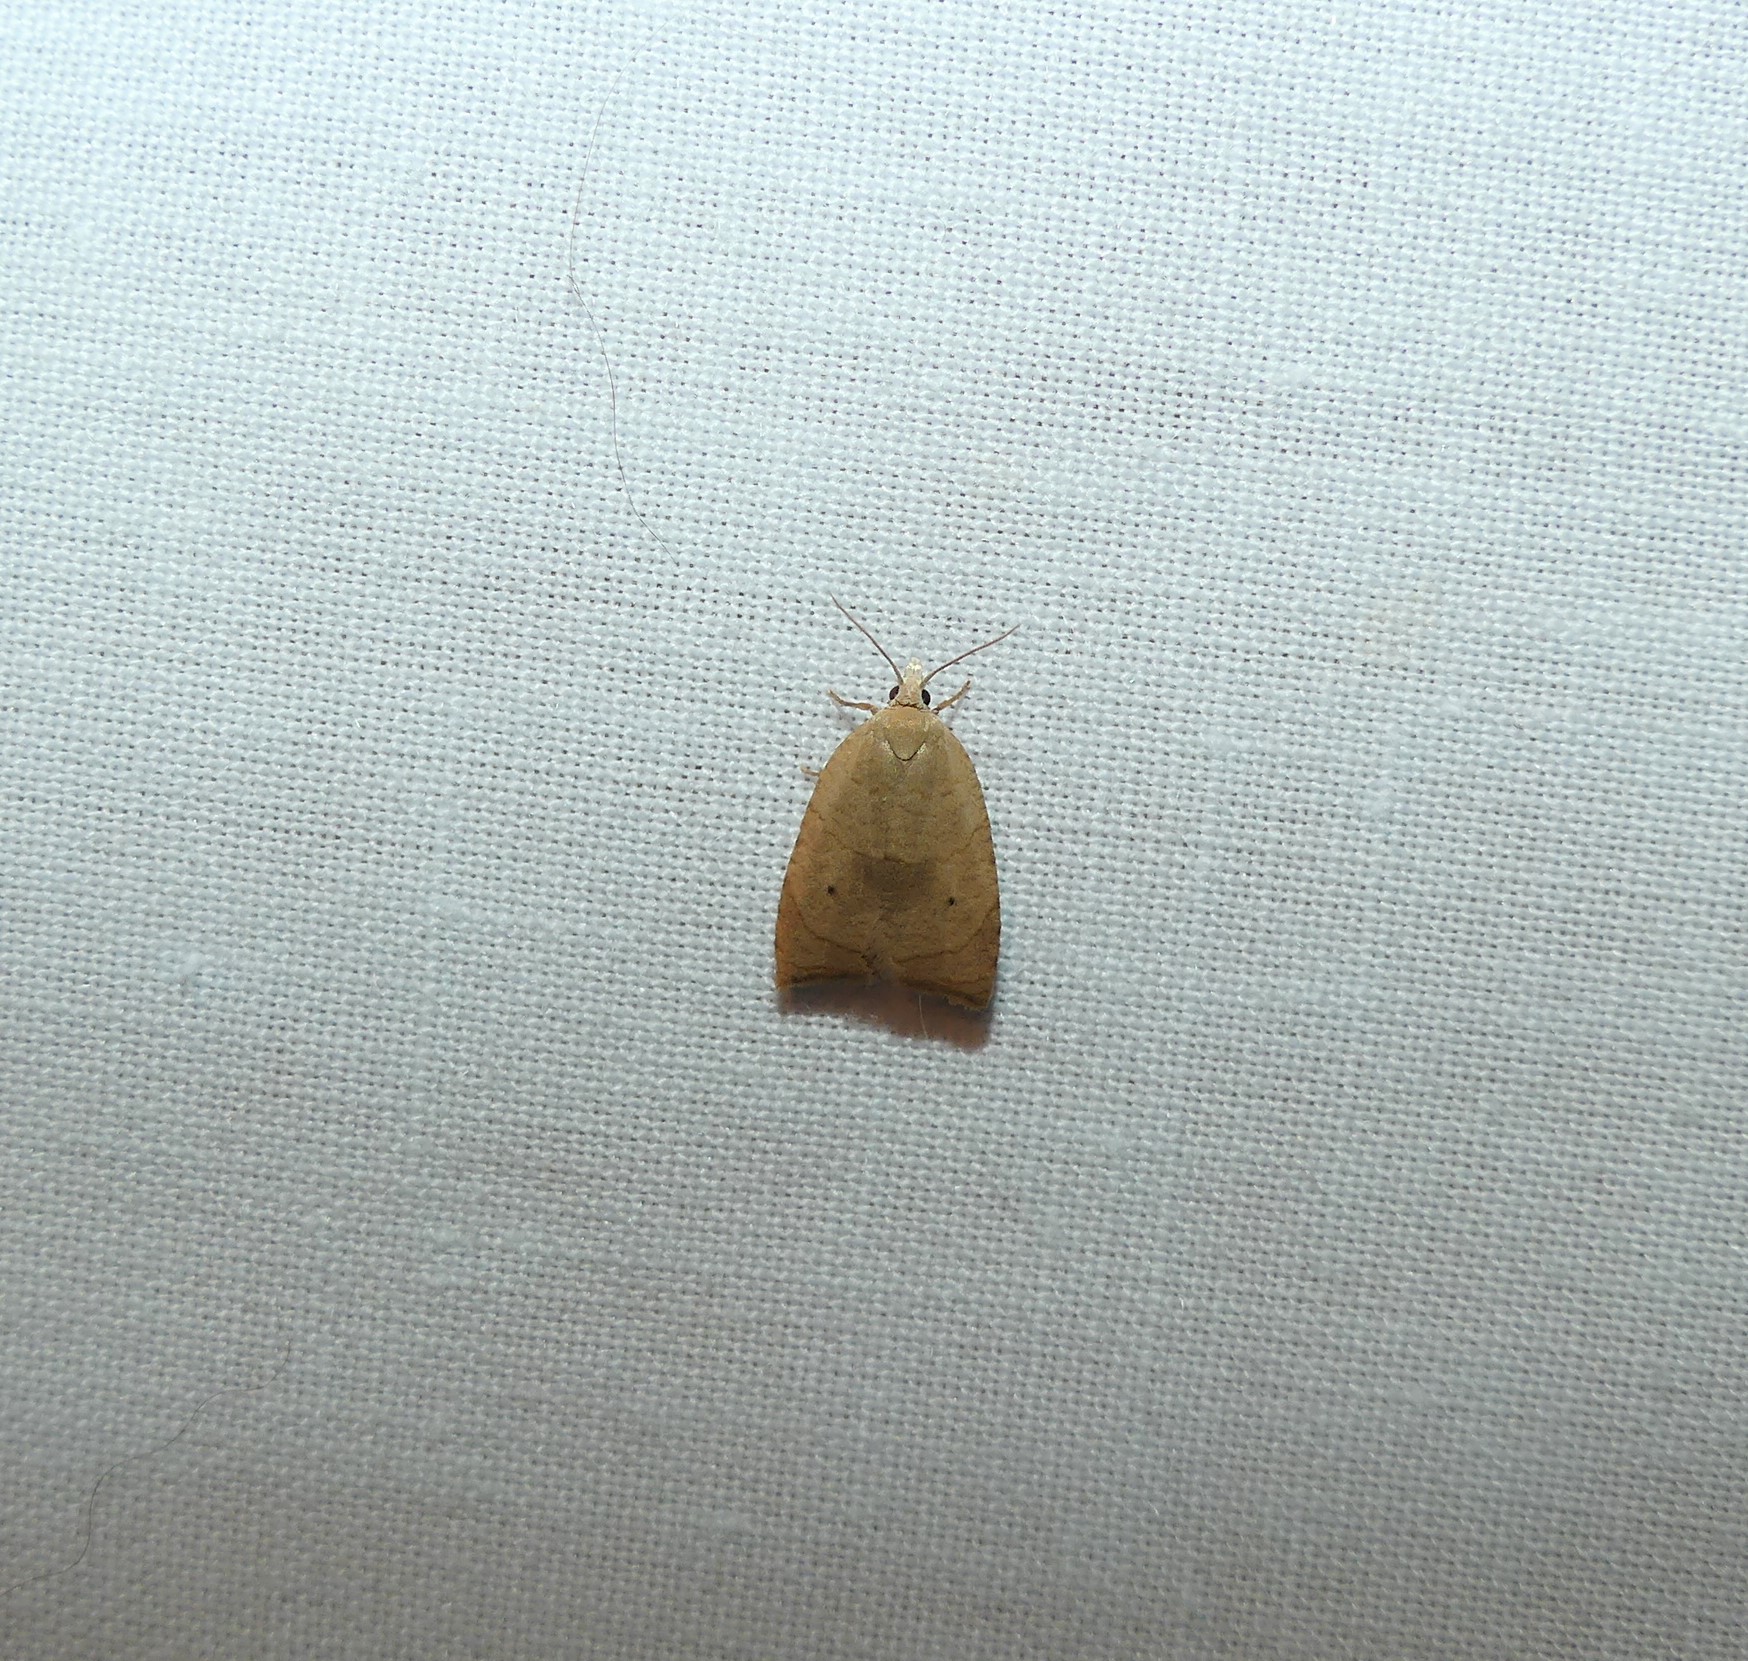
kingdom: Animalia
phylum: Arthropoda
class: Insecta
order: Lepidoptera
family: Tortricidae
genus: Coelostathma
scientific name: Coelostathma discopunctana
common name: Batman moth
